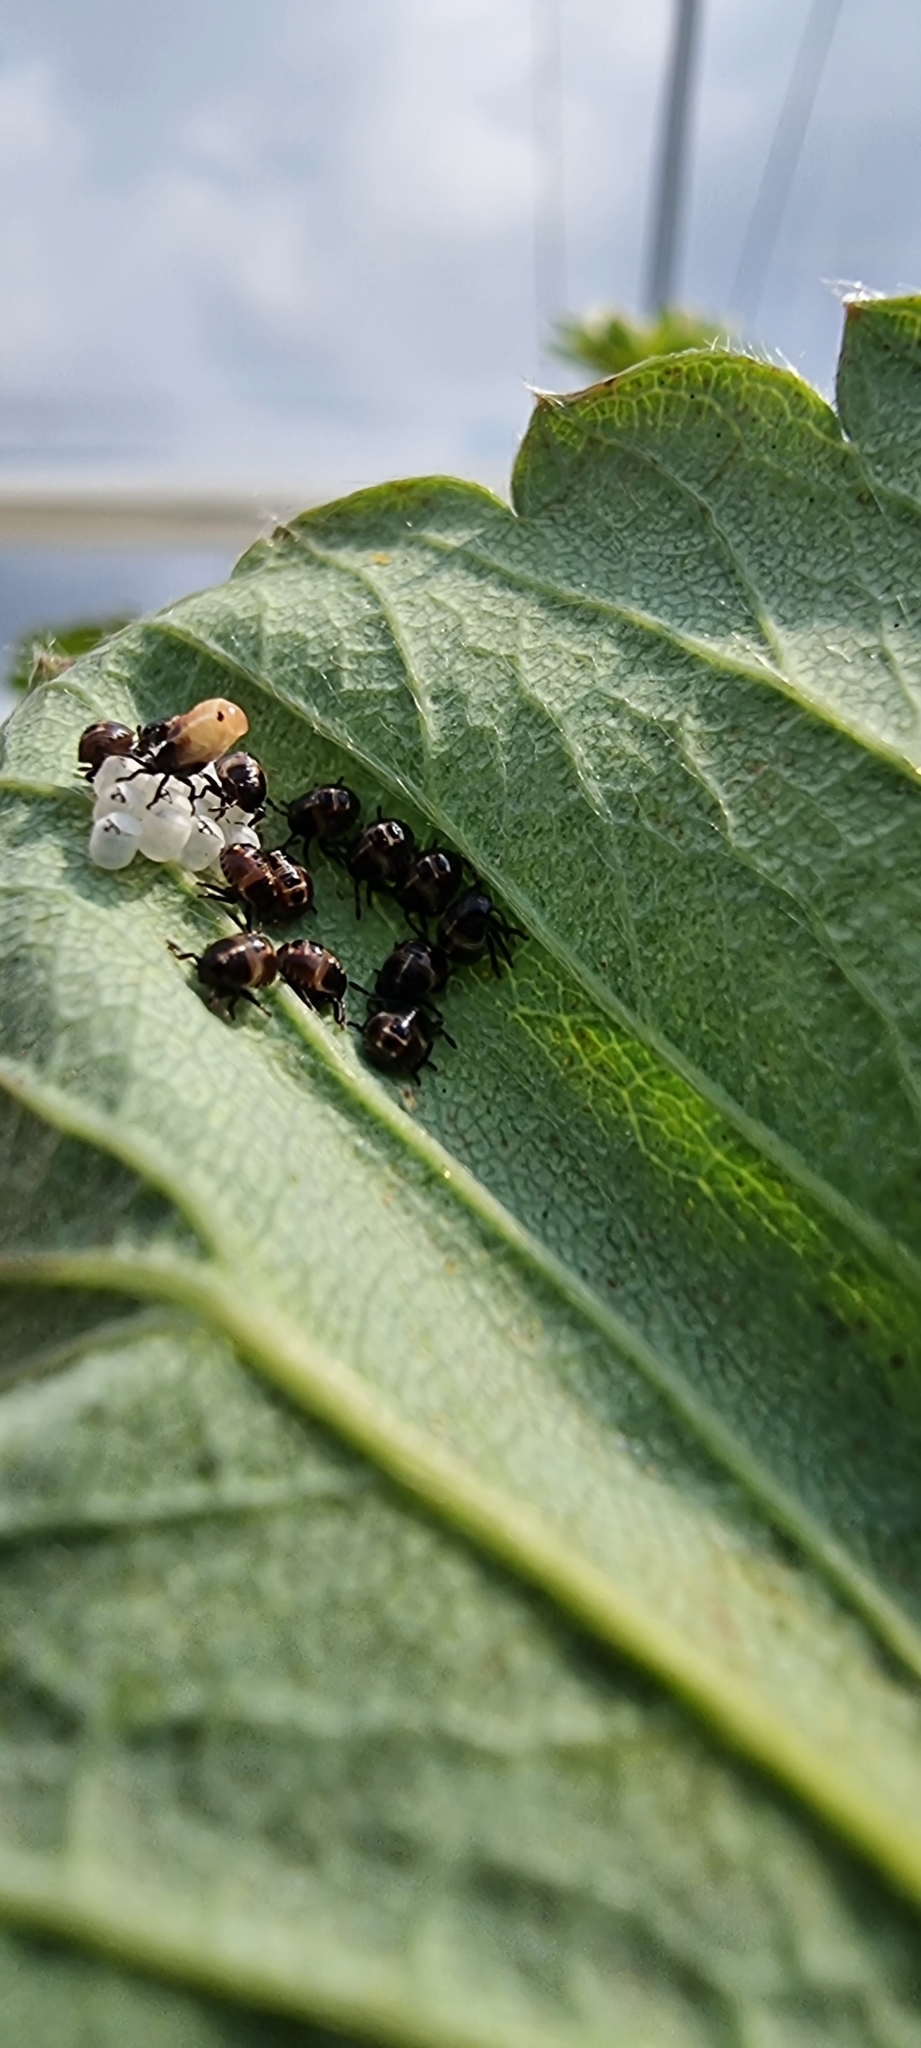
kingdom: Animalia
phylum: Arthropoda
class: Insecta
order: Hemiptera
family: Pentatomidae
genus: Palomena
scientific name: Palomena prasina
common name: Green shieldbug
